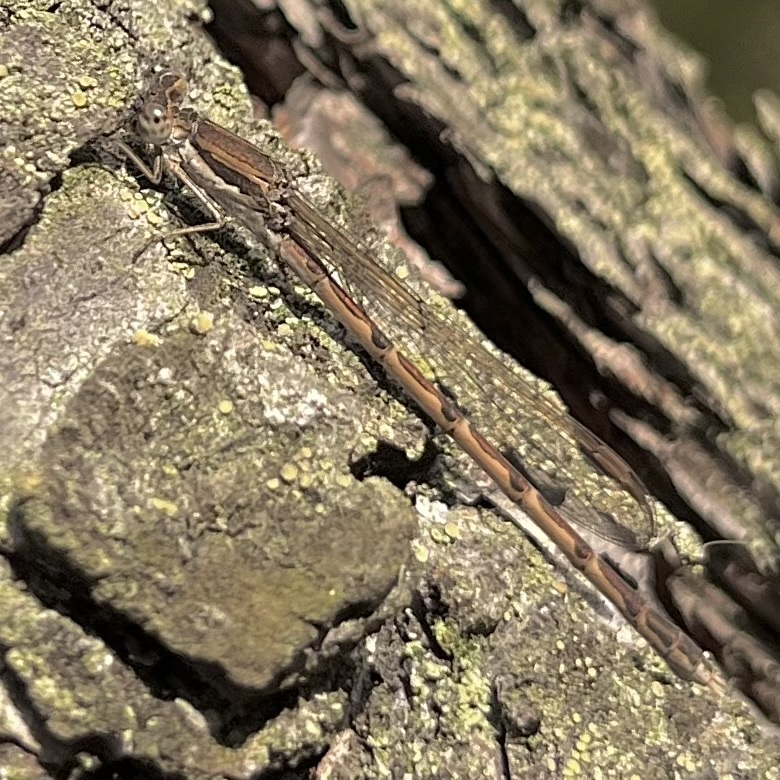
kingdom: Animalia
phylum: Arthropoda
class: Insecta
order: Odonata
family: Lestidae
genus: Sympecma
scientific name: Sympecma fusca
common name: Common winter damsel
